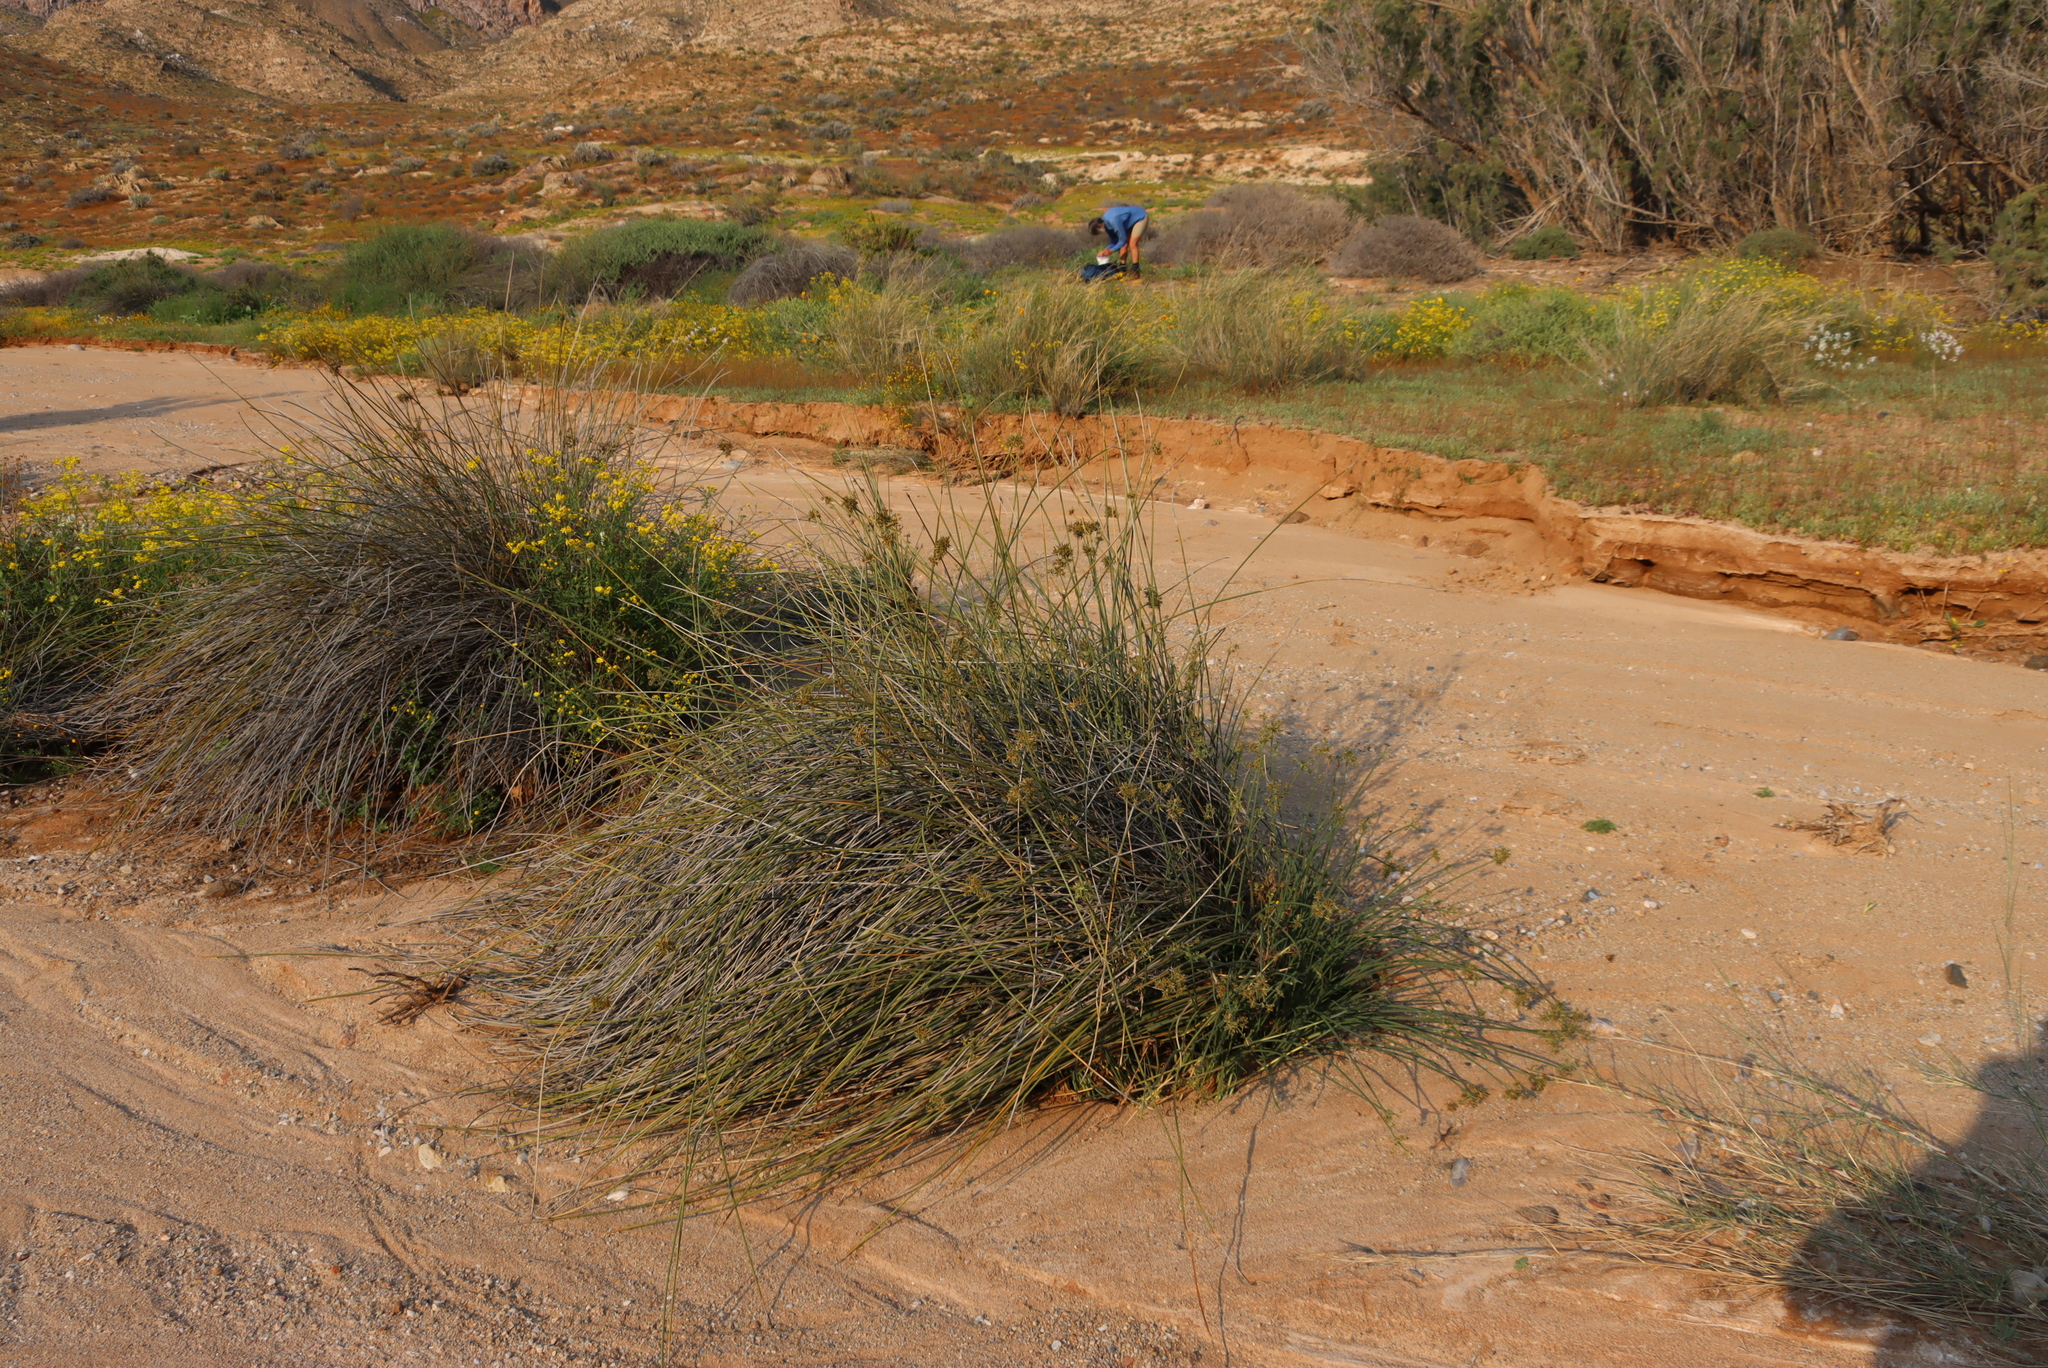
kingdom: Plantae
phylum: Tracheophyta
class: Liliopsida
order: Poales
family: Cyperaceae
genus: Cyperus
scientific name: Cyperus marginatus
